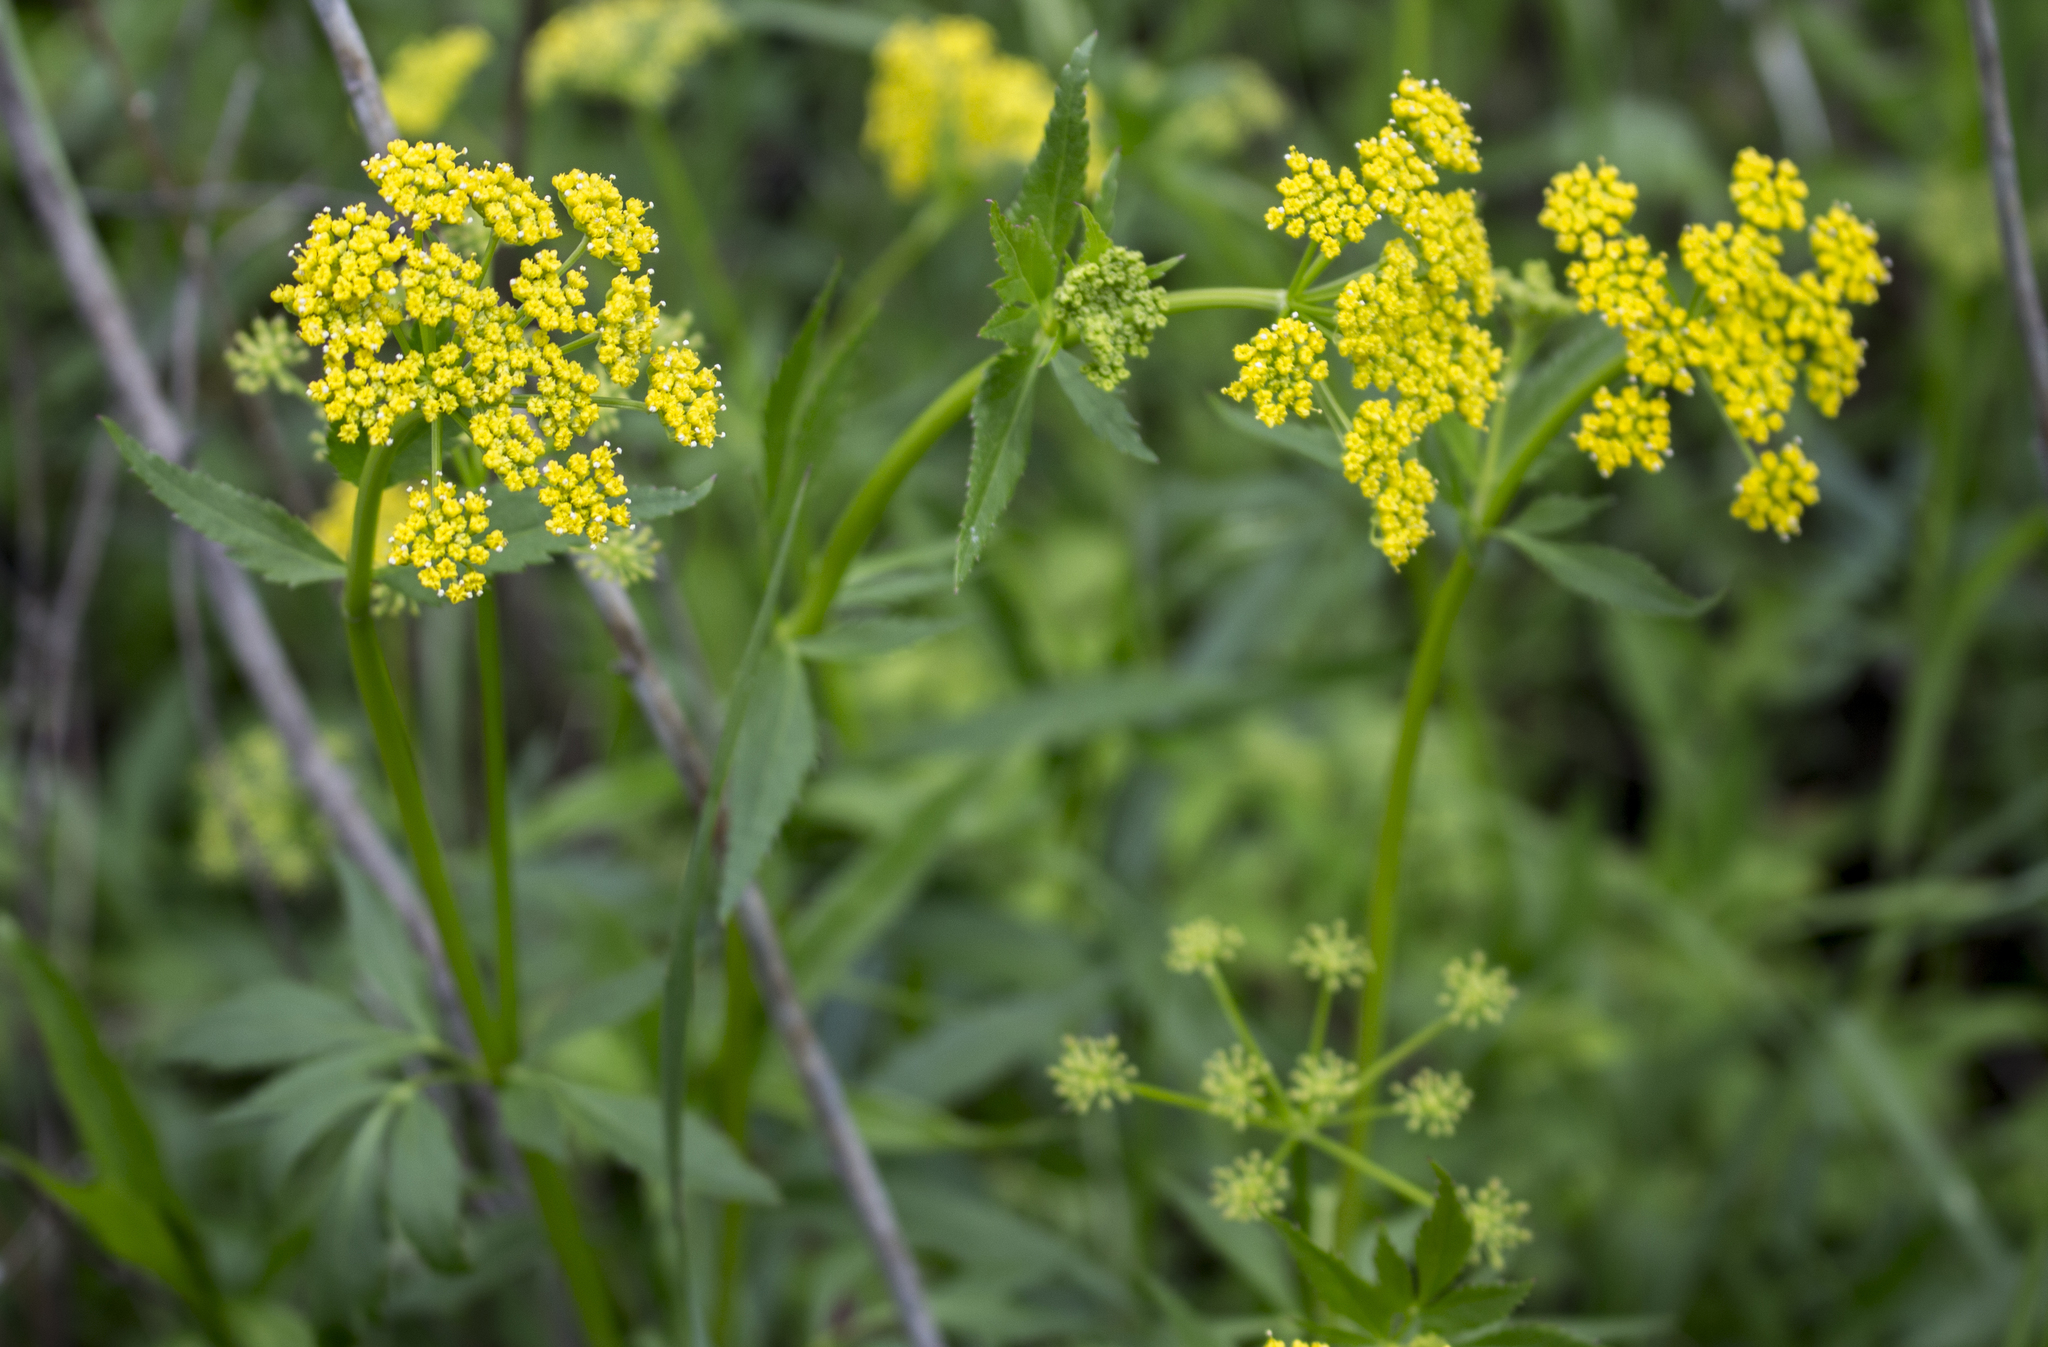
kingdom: Plantae
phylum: Tracheophyta
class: Magnoliopsida
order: Apiales
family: Apiaceae
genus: Zizia
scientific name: Zizia aurea
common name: Golden alexanders
